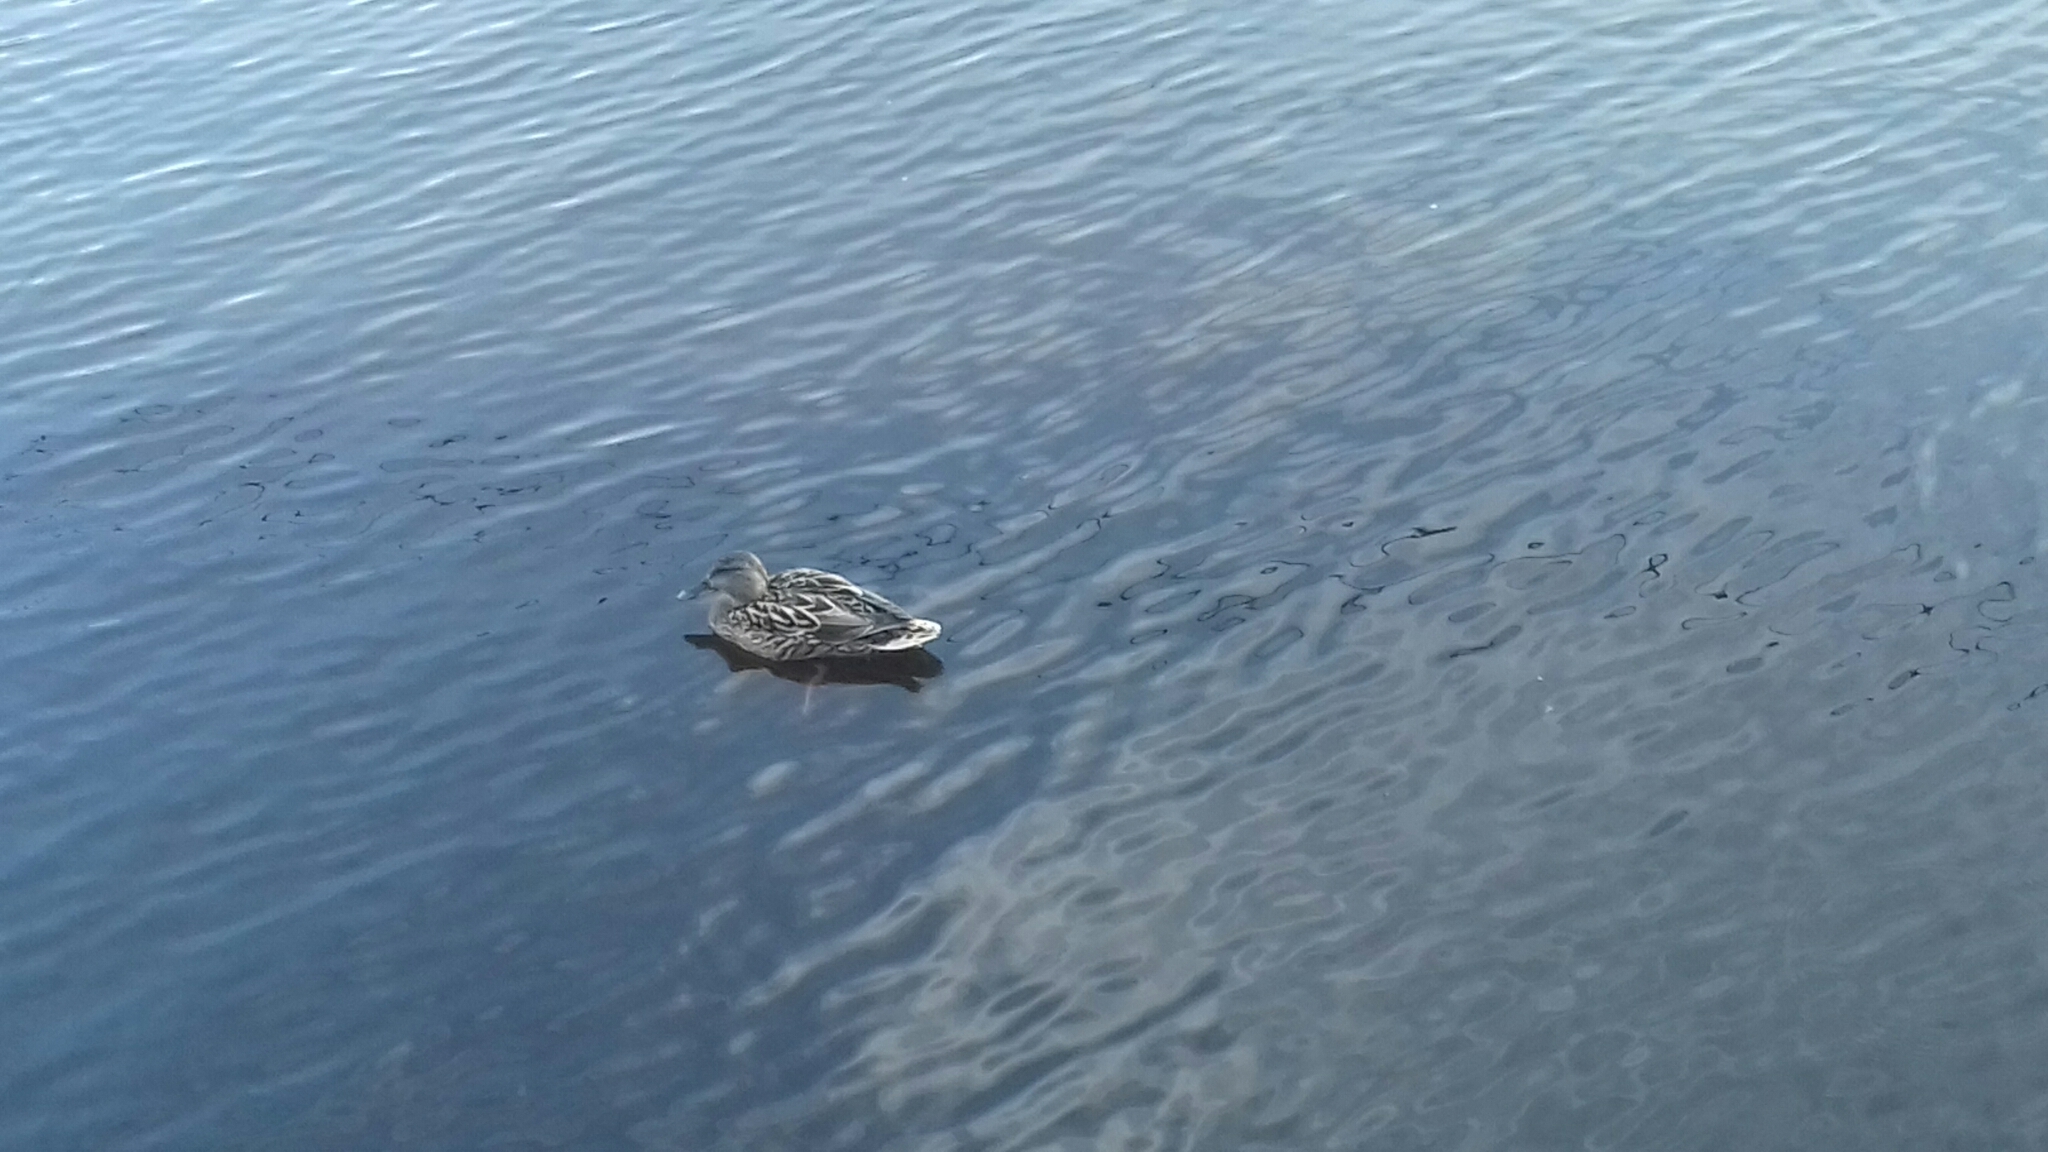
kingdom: Animalia
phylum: Chordata
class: Aves
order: Anseriformes
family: Anatidae
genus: Anas
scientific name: Anas platyrhynchos
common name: Mallard
